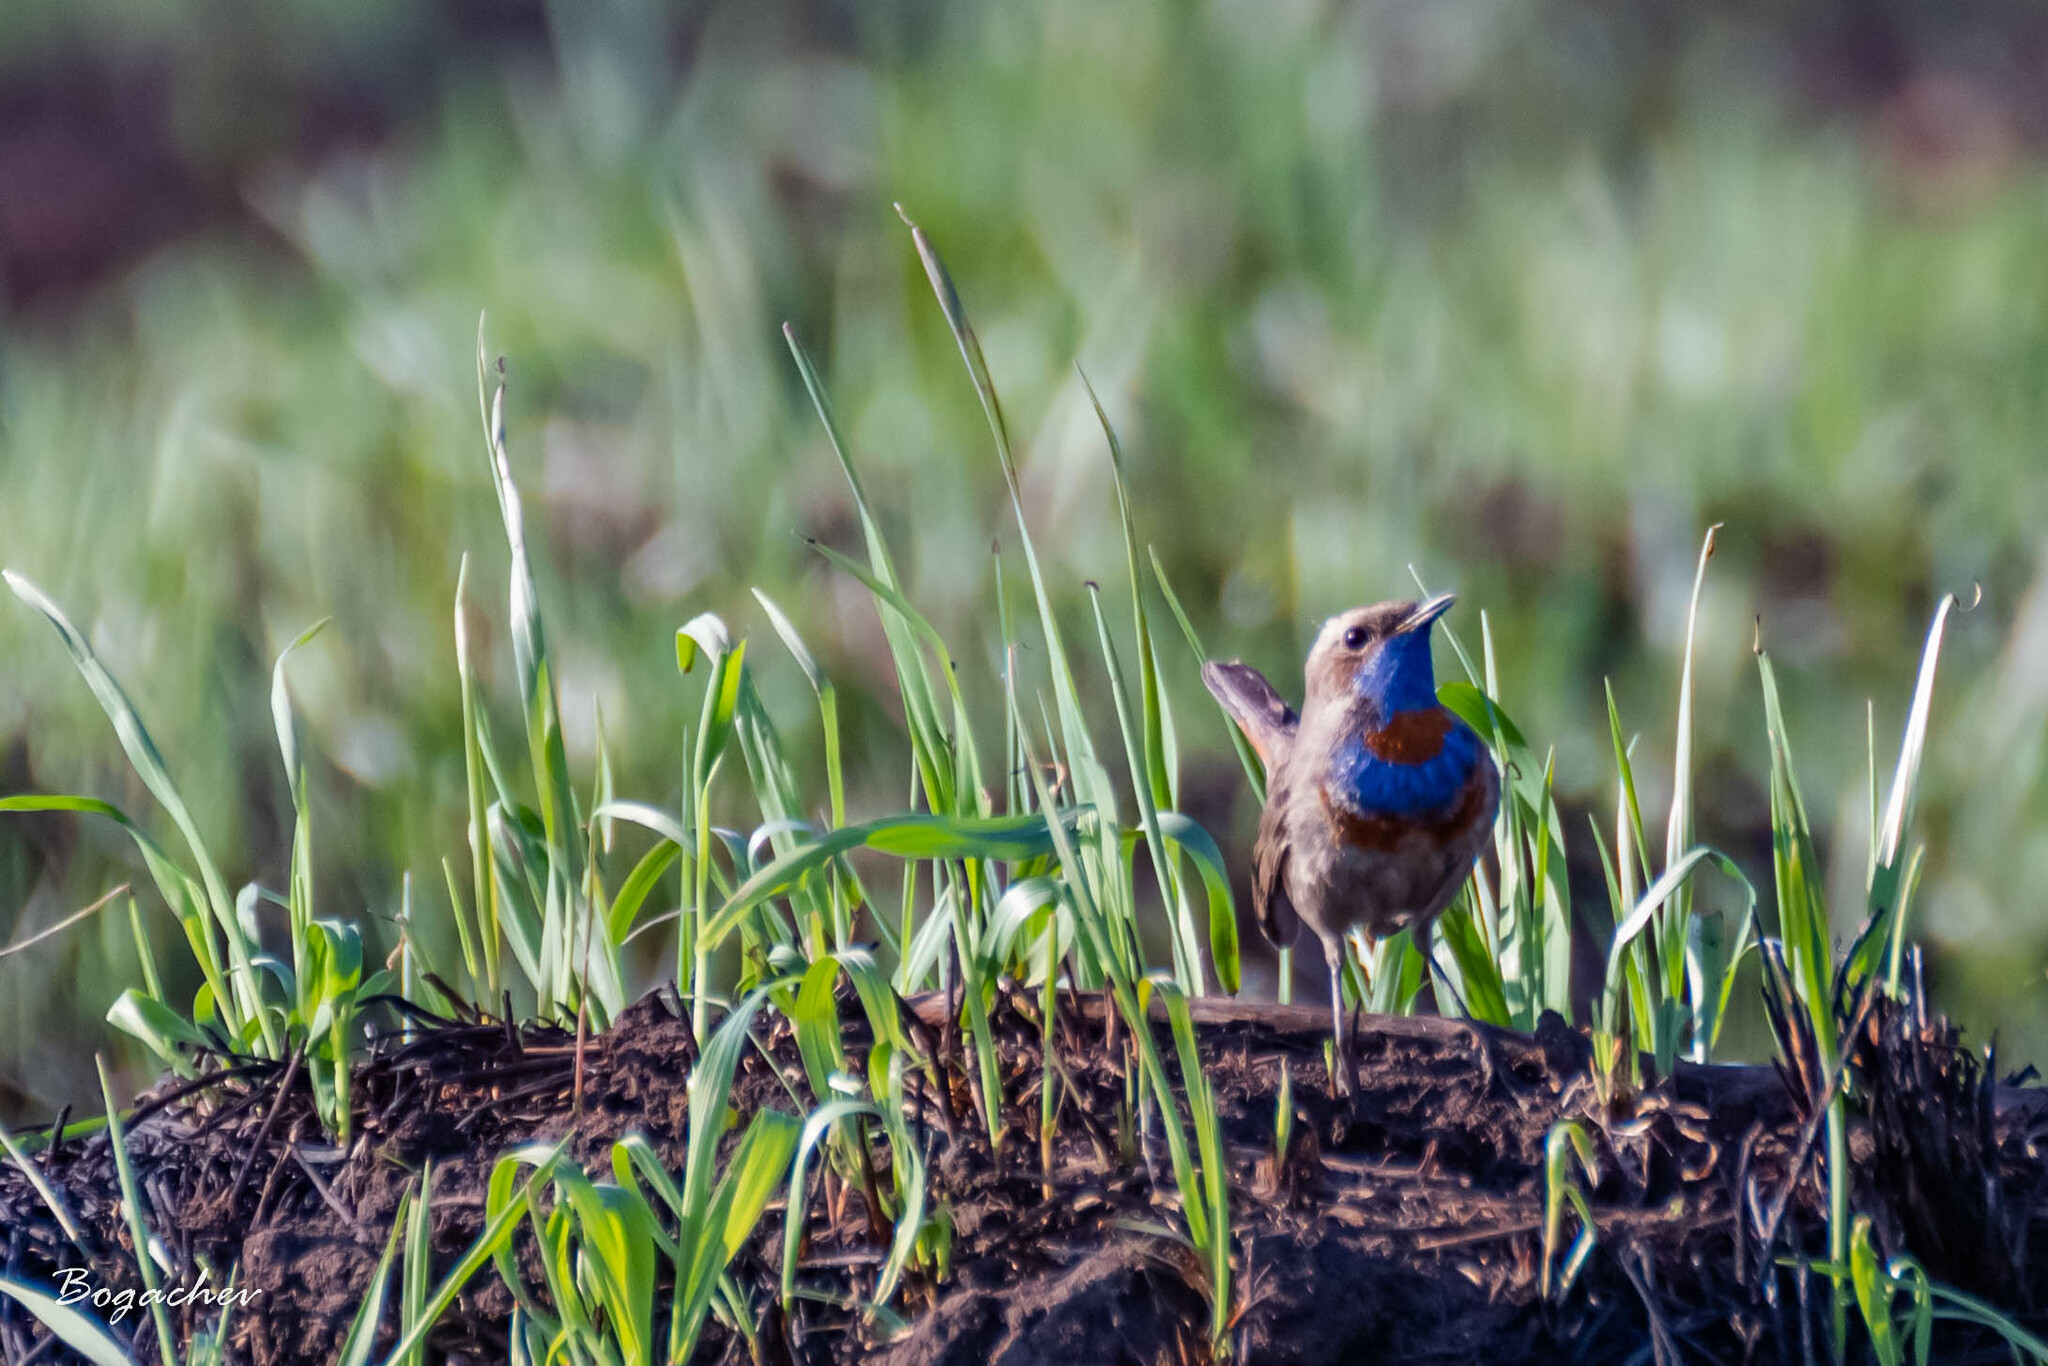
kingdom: Animalia
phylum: Chordata
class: Aves
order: Passeriformes
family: Muscicapidae
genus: Luscinia
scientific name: Luscinia svecica
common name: Bluethroat
